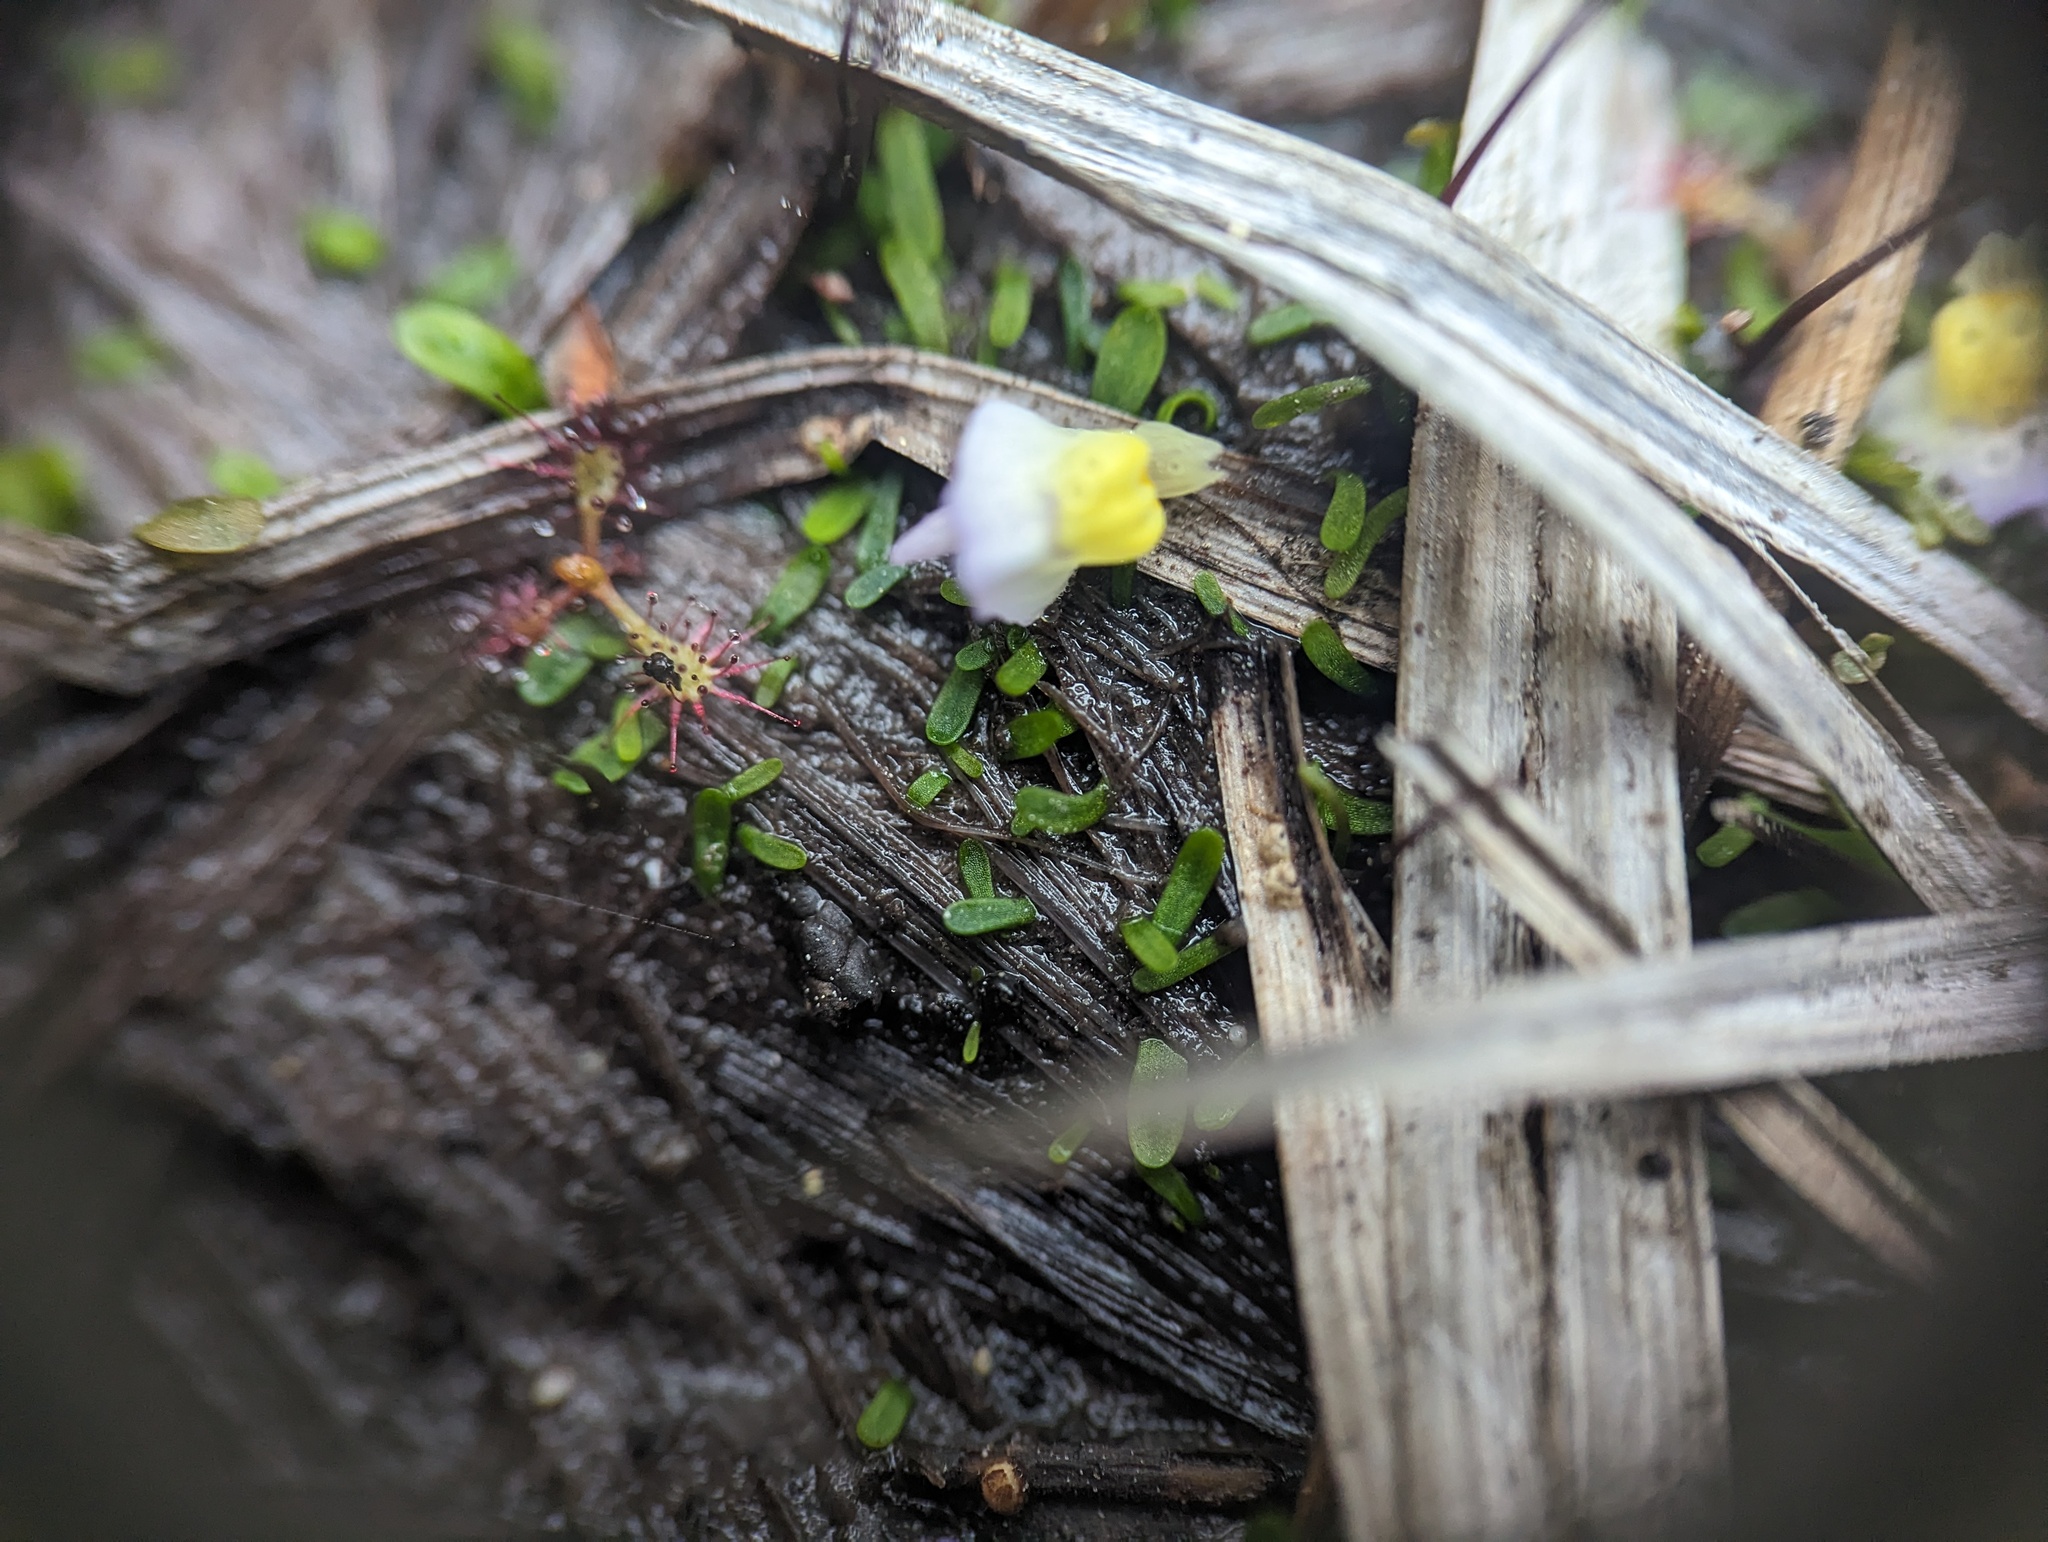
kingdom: Plantae
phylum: Tracheophyta
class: Magnoliopsida
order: Lamiales
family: Lentibulariaceae
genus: Utricularia
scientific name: Utricularia bisquamata
